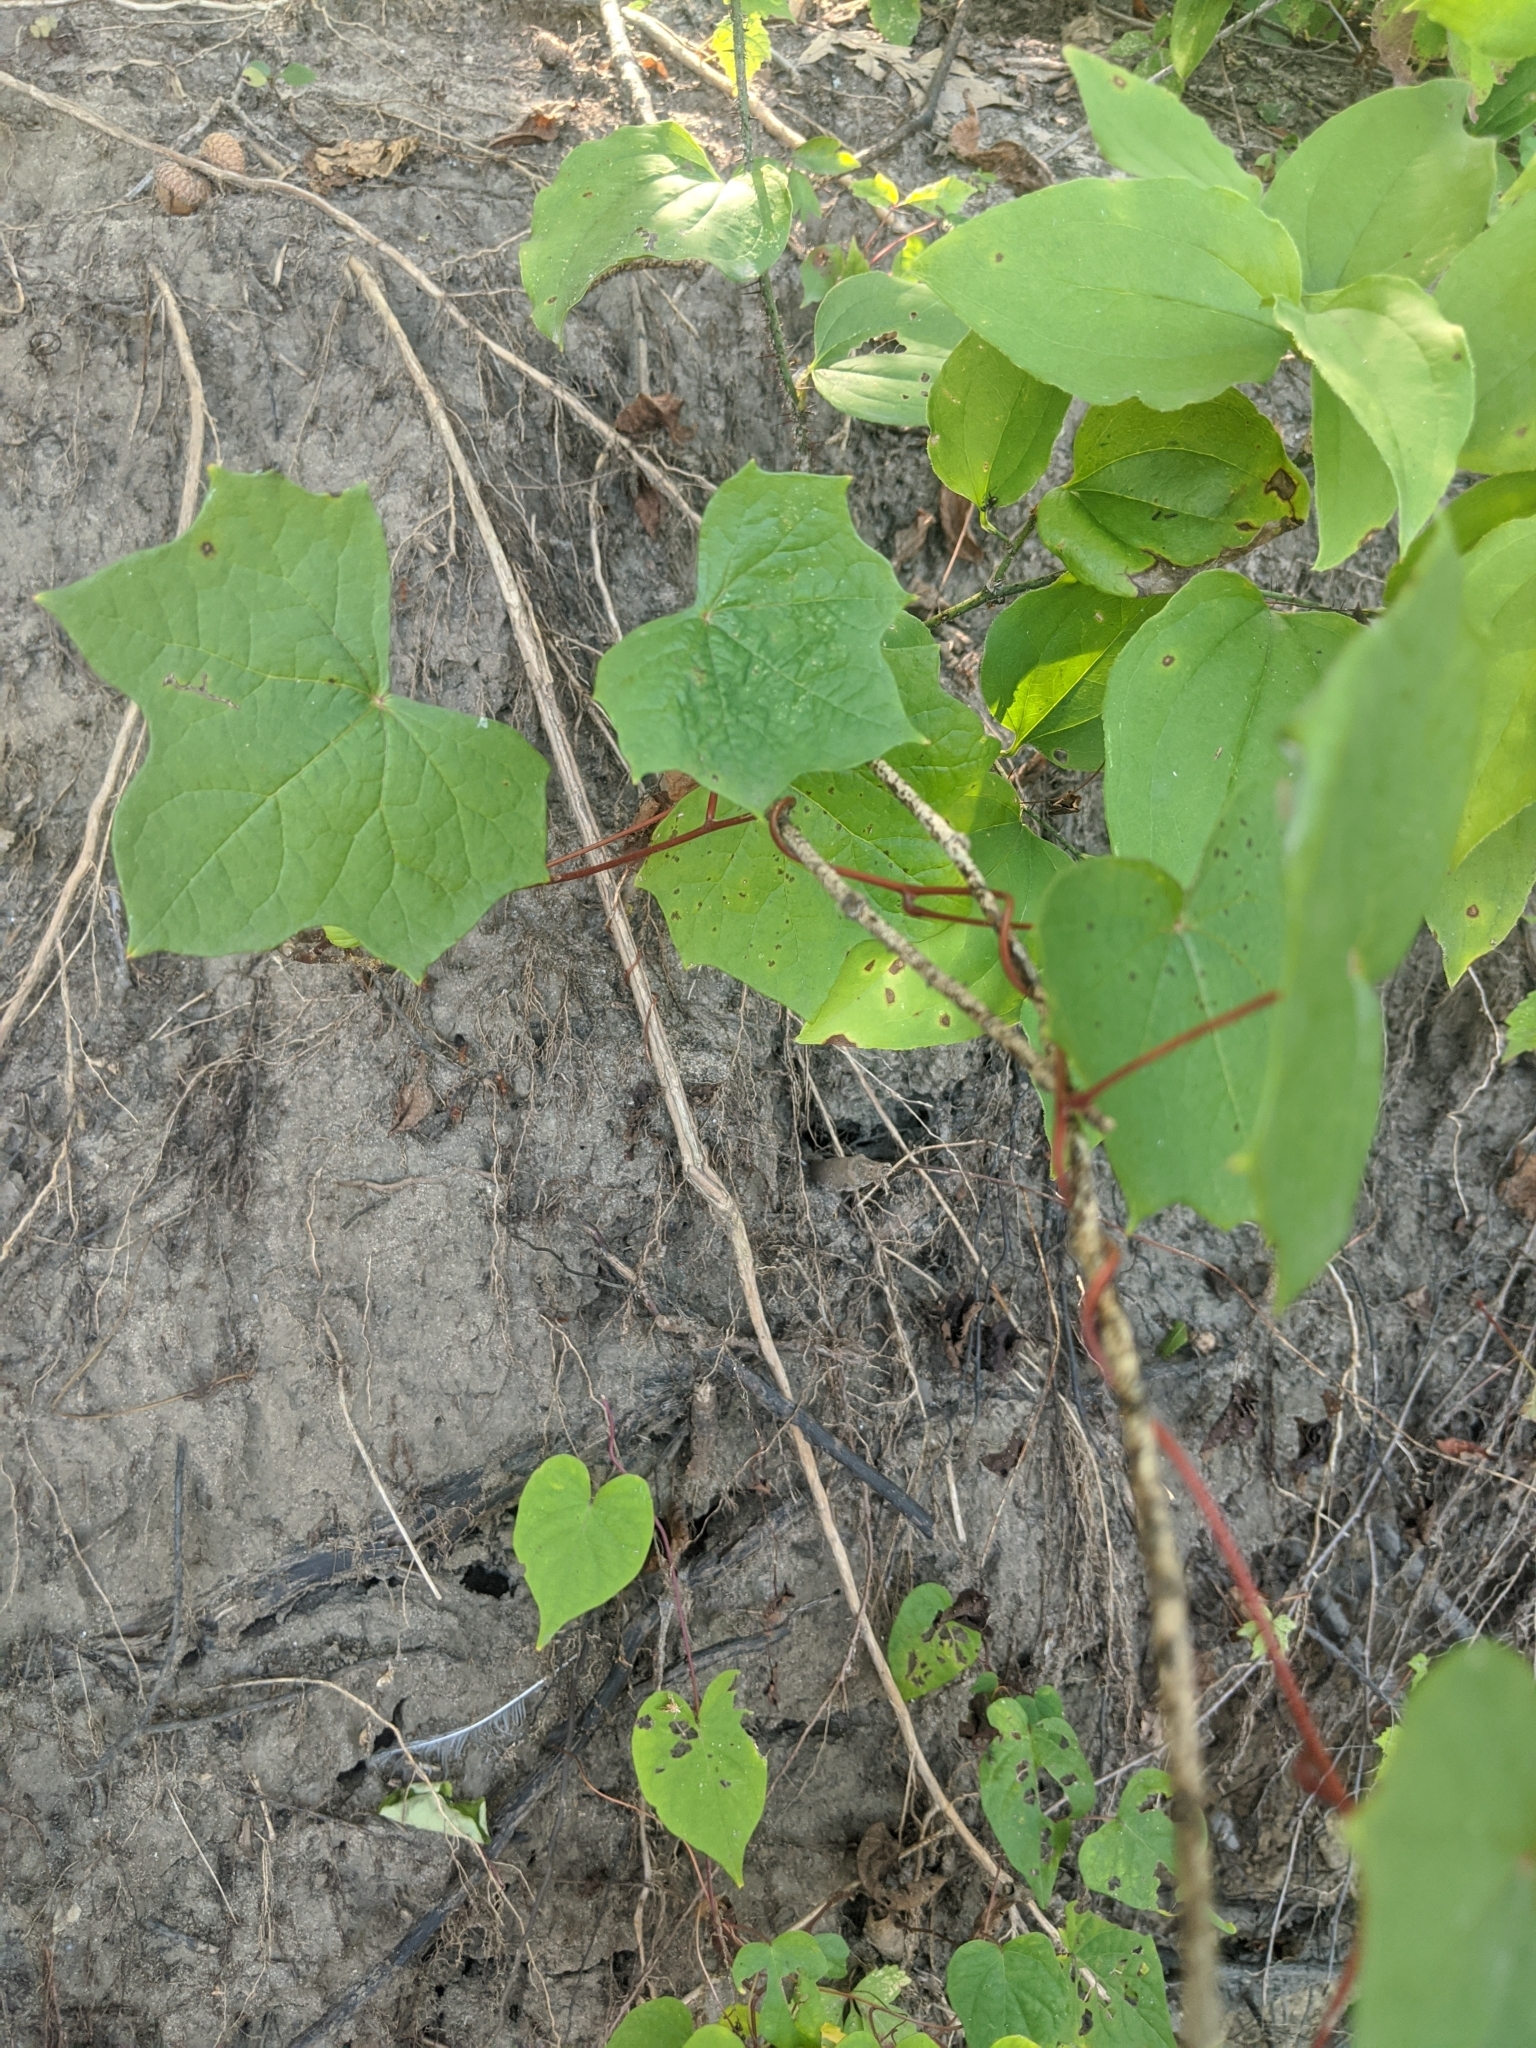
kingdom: Plantae
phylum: Tracheophyta
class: Magnoliopsida
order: Ranunculales
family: Menispermaceae
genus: Menispermum
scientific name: Menispermum canadense
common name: Moonseed
